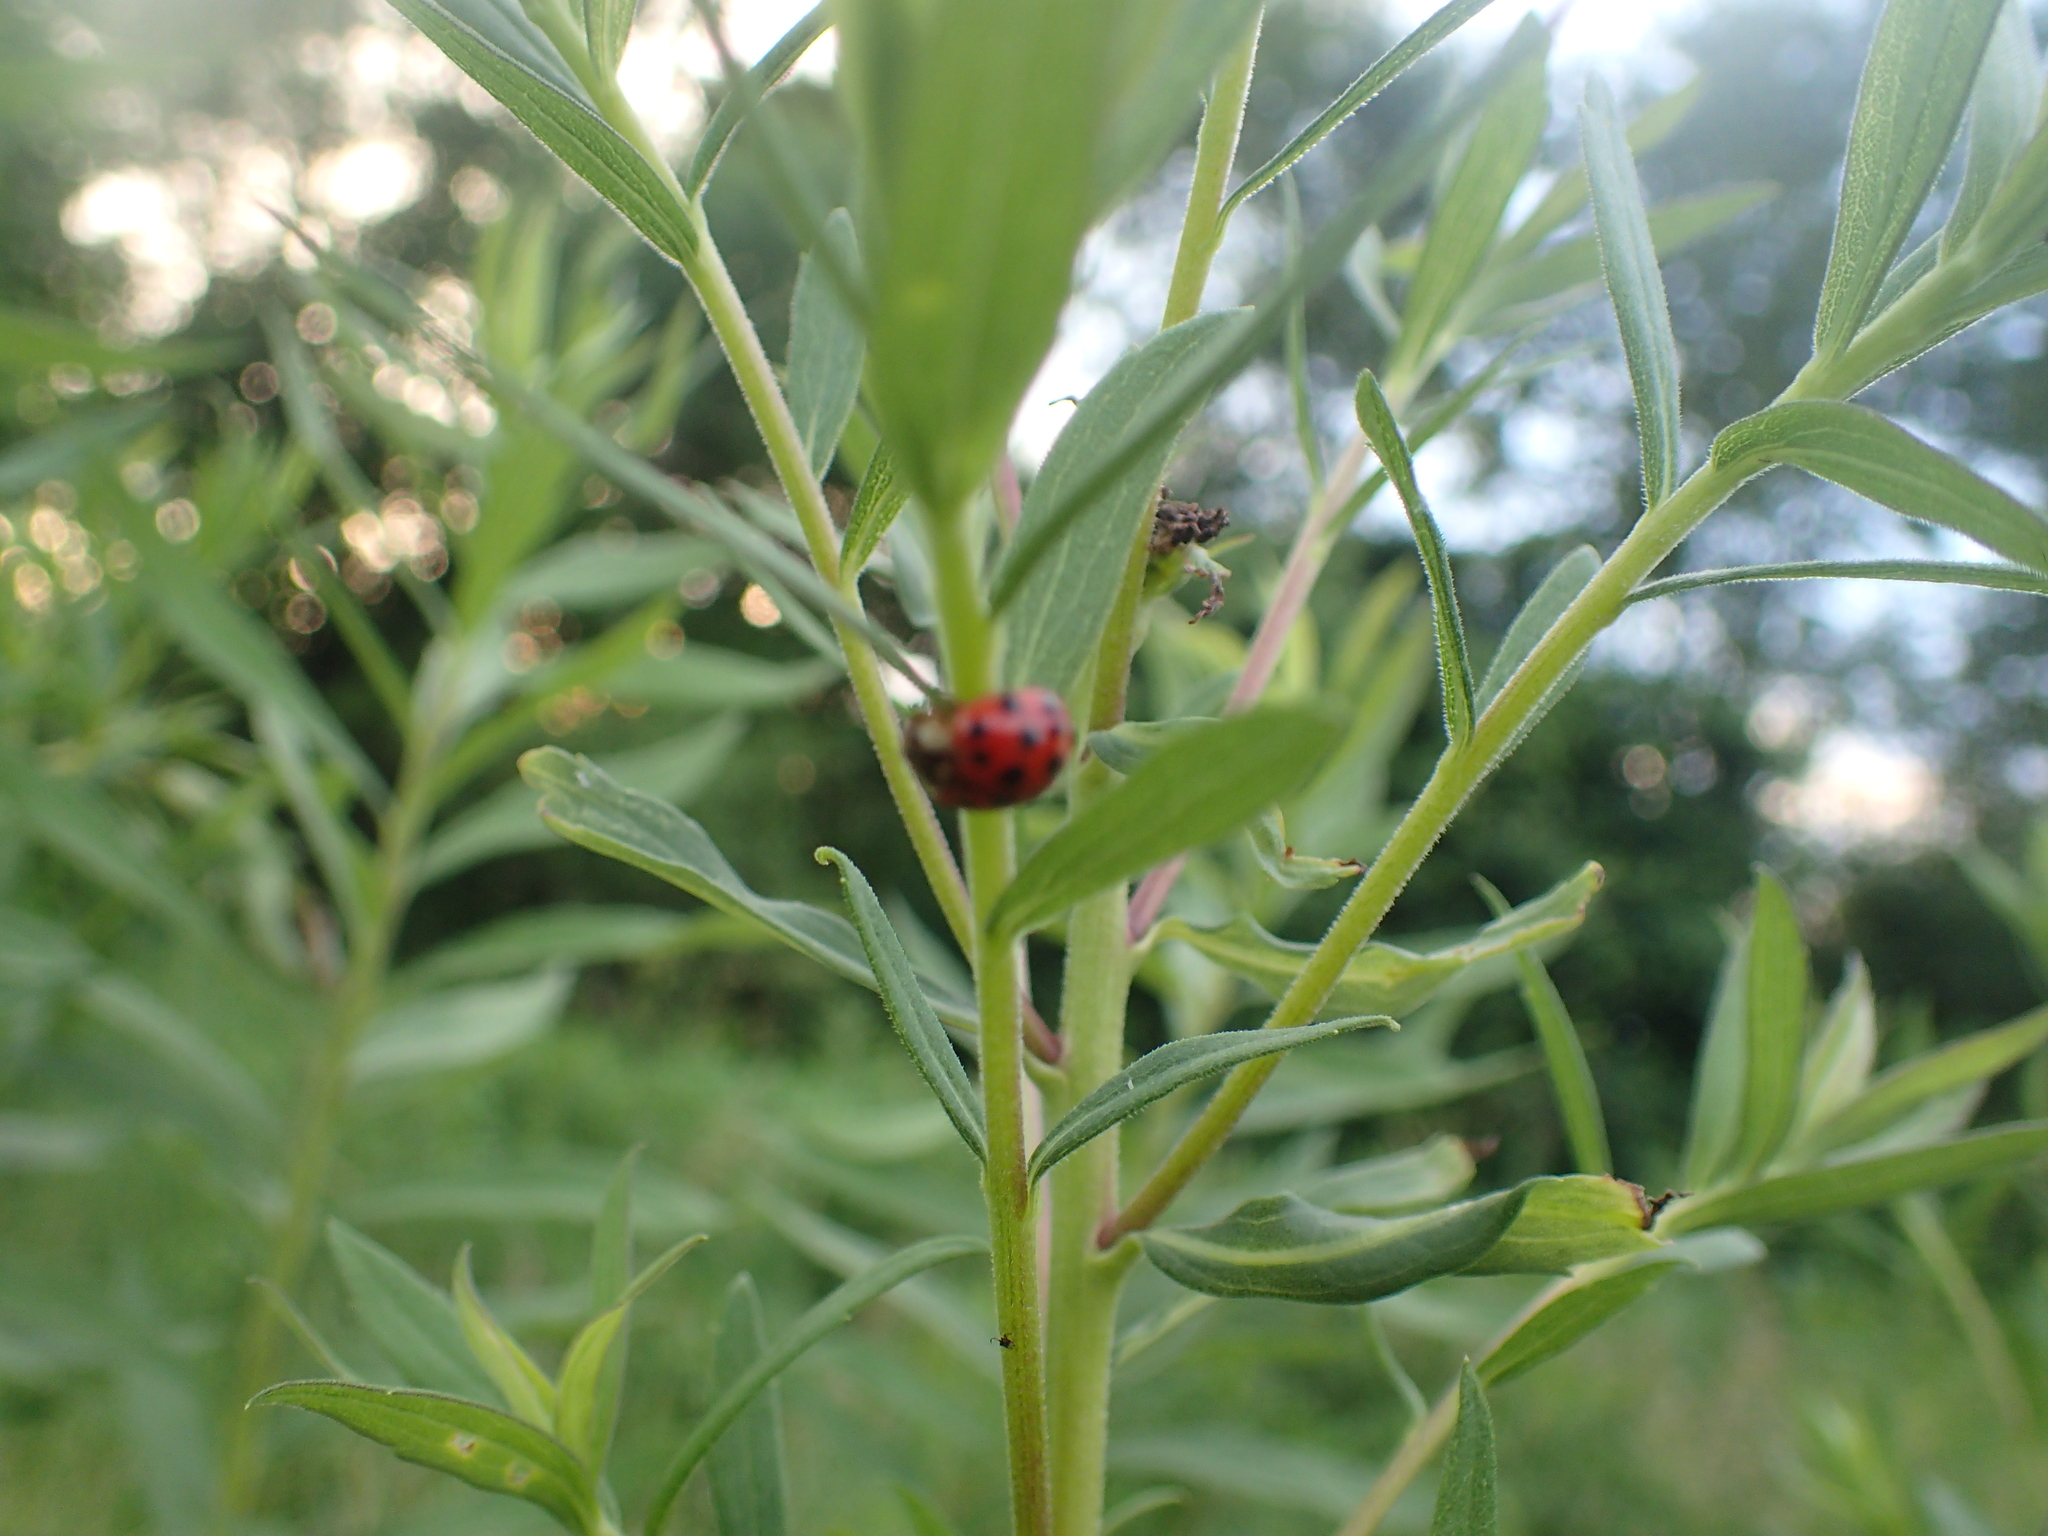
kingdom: Animalia
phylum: Arthropoda
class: Insecta
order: Coleoptera
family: Coccinellidae
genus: Harmonia
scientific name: Harmonia axyridis
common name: Harlequin ladybird
